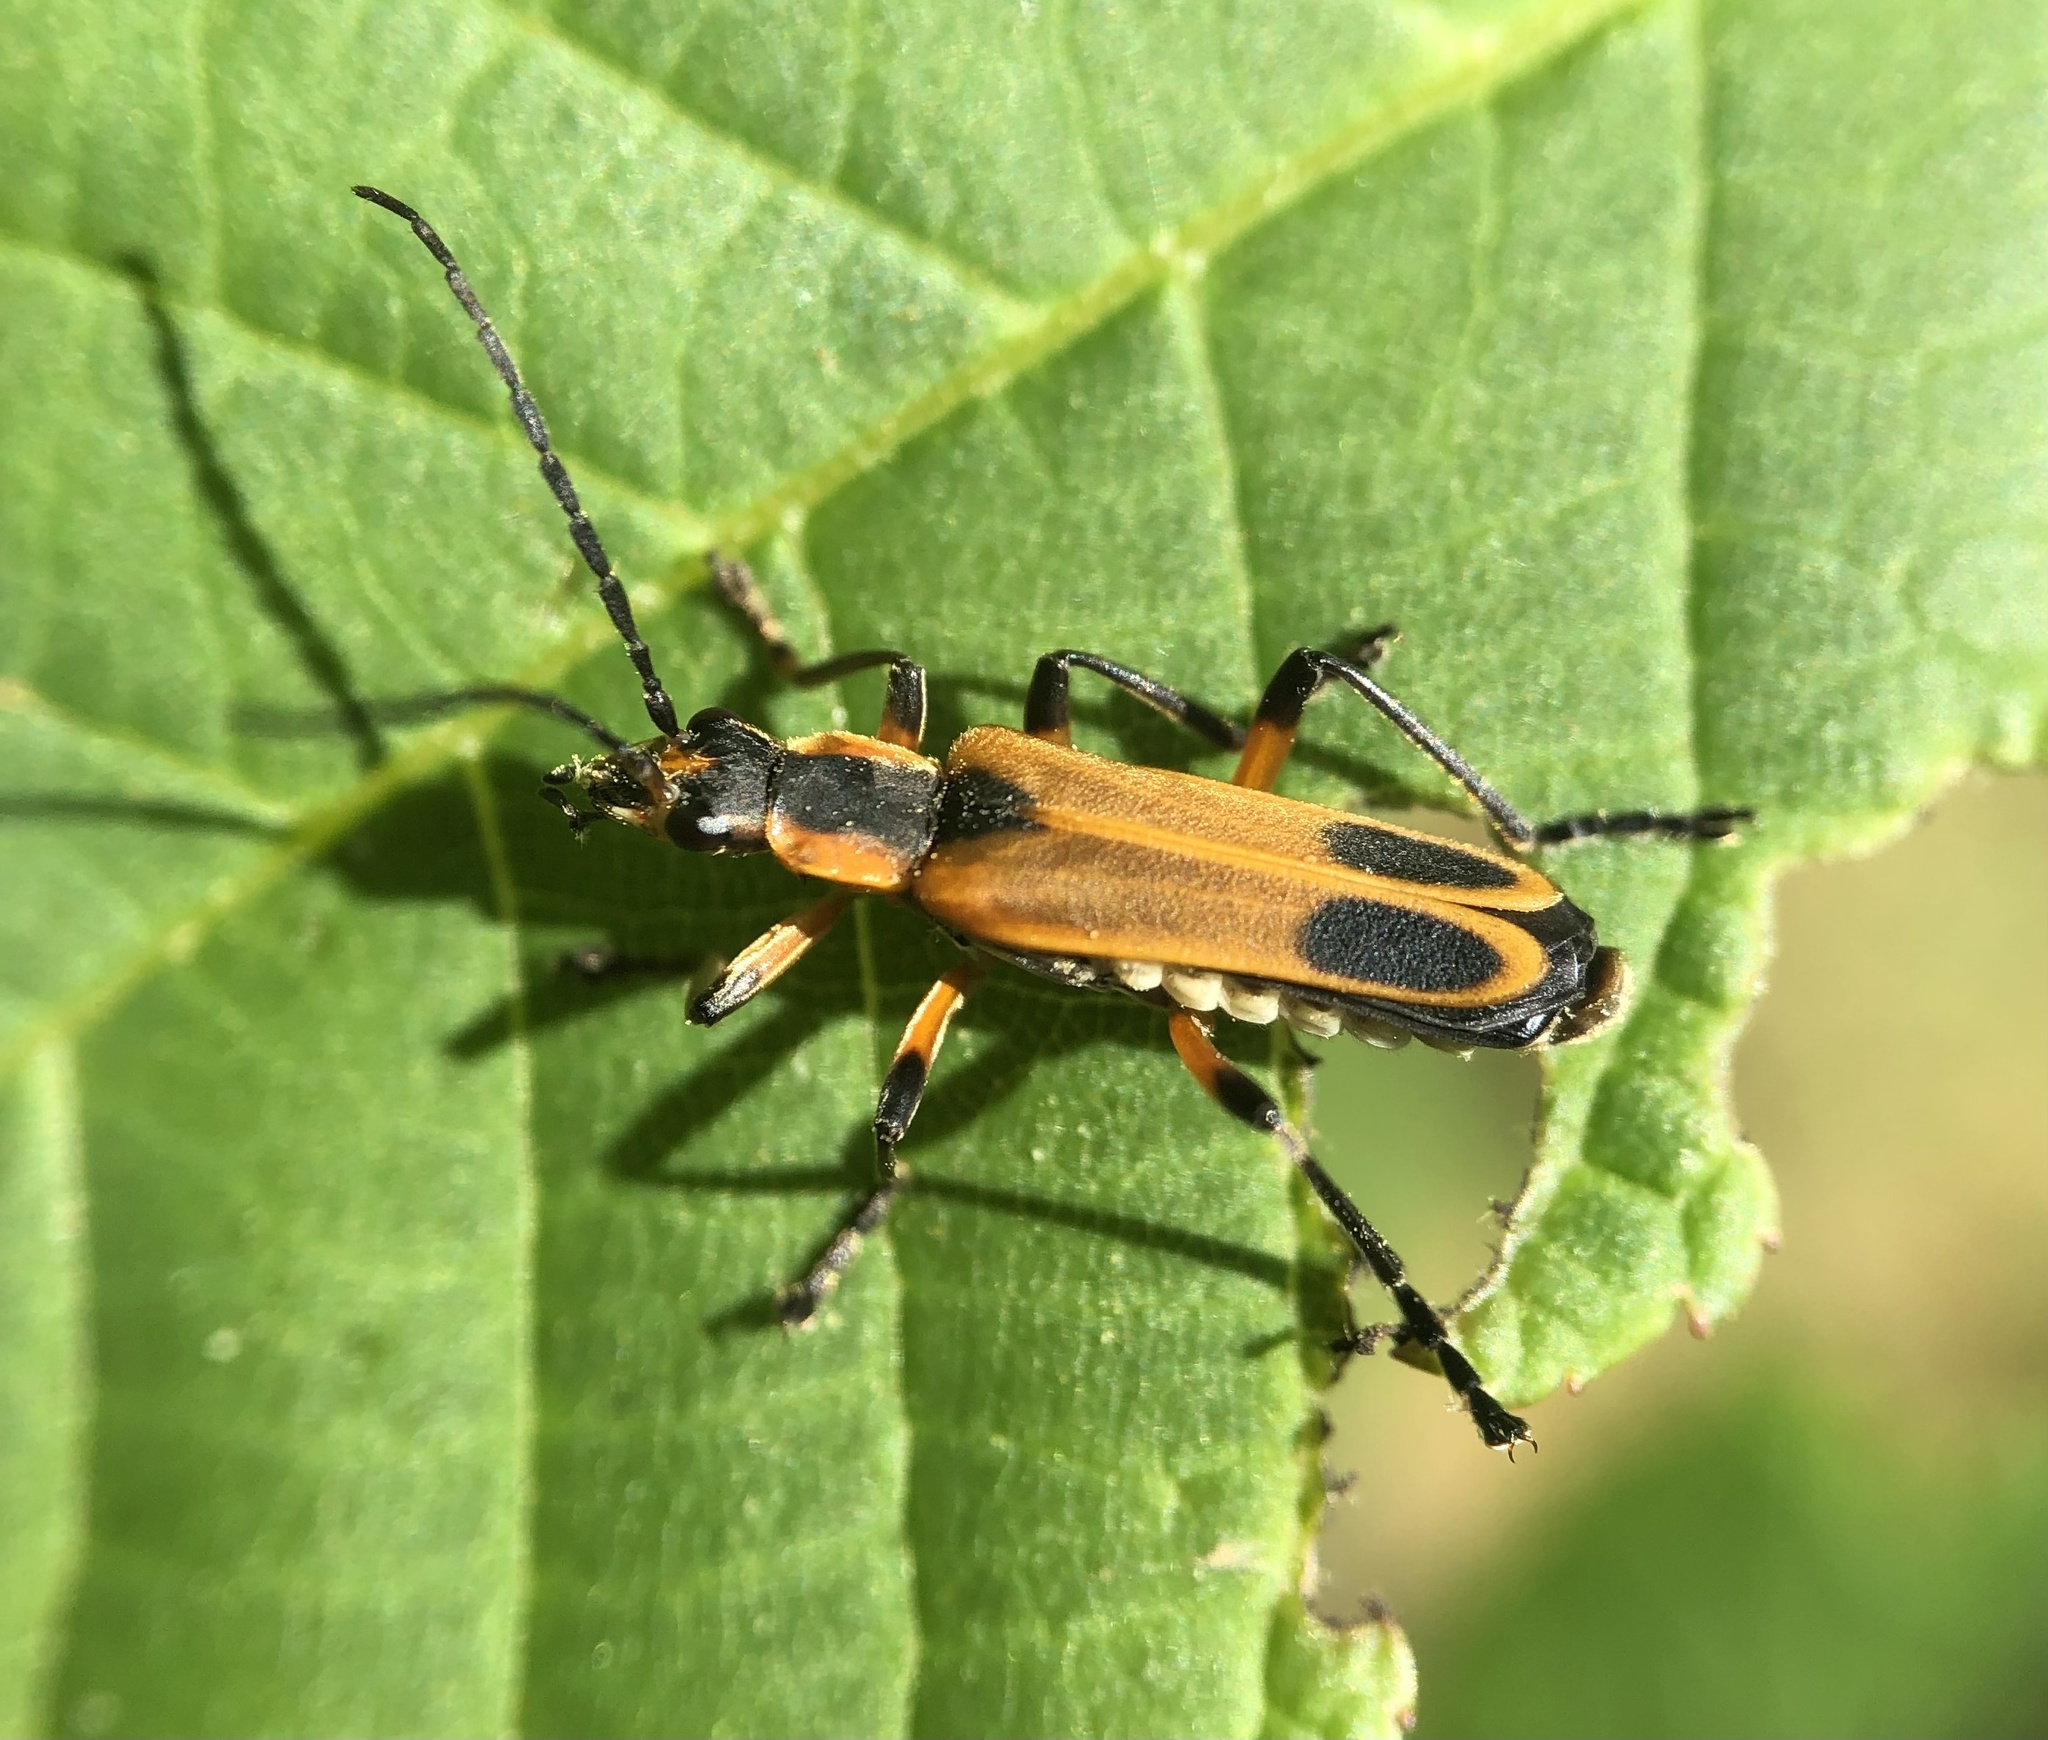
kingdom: Animalia
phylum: Arthropoda
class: Insecta
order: Coleoptera
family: Cantharidae
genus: Chauliognathus
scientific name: Chauliognathus marginatus
